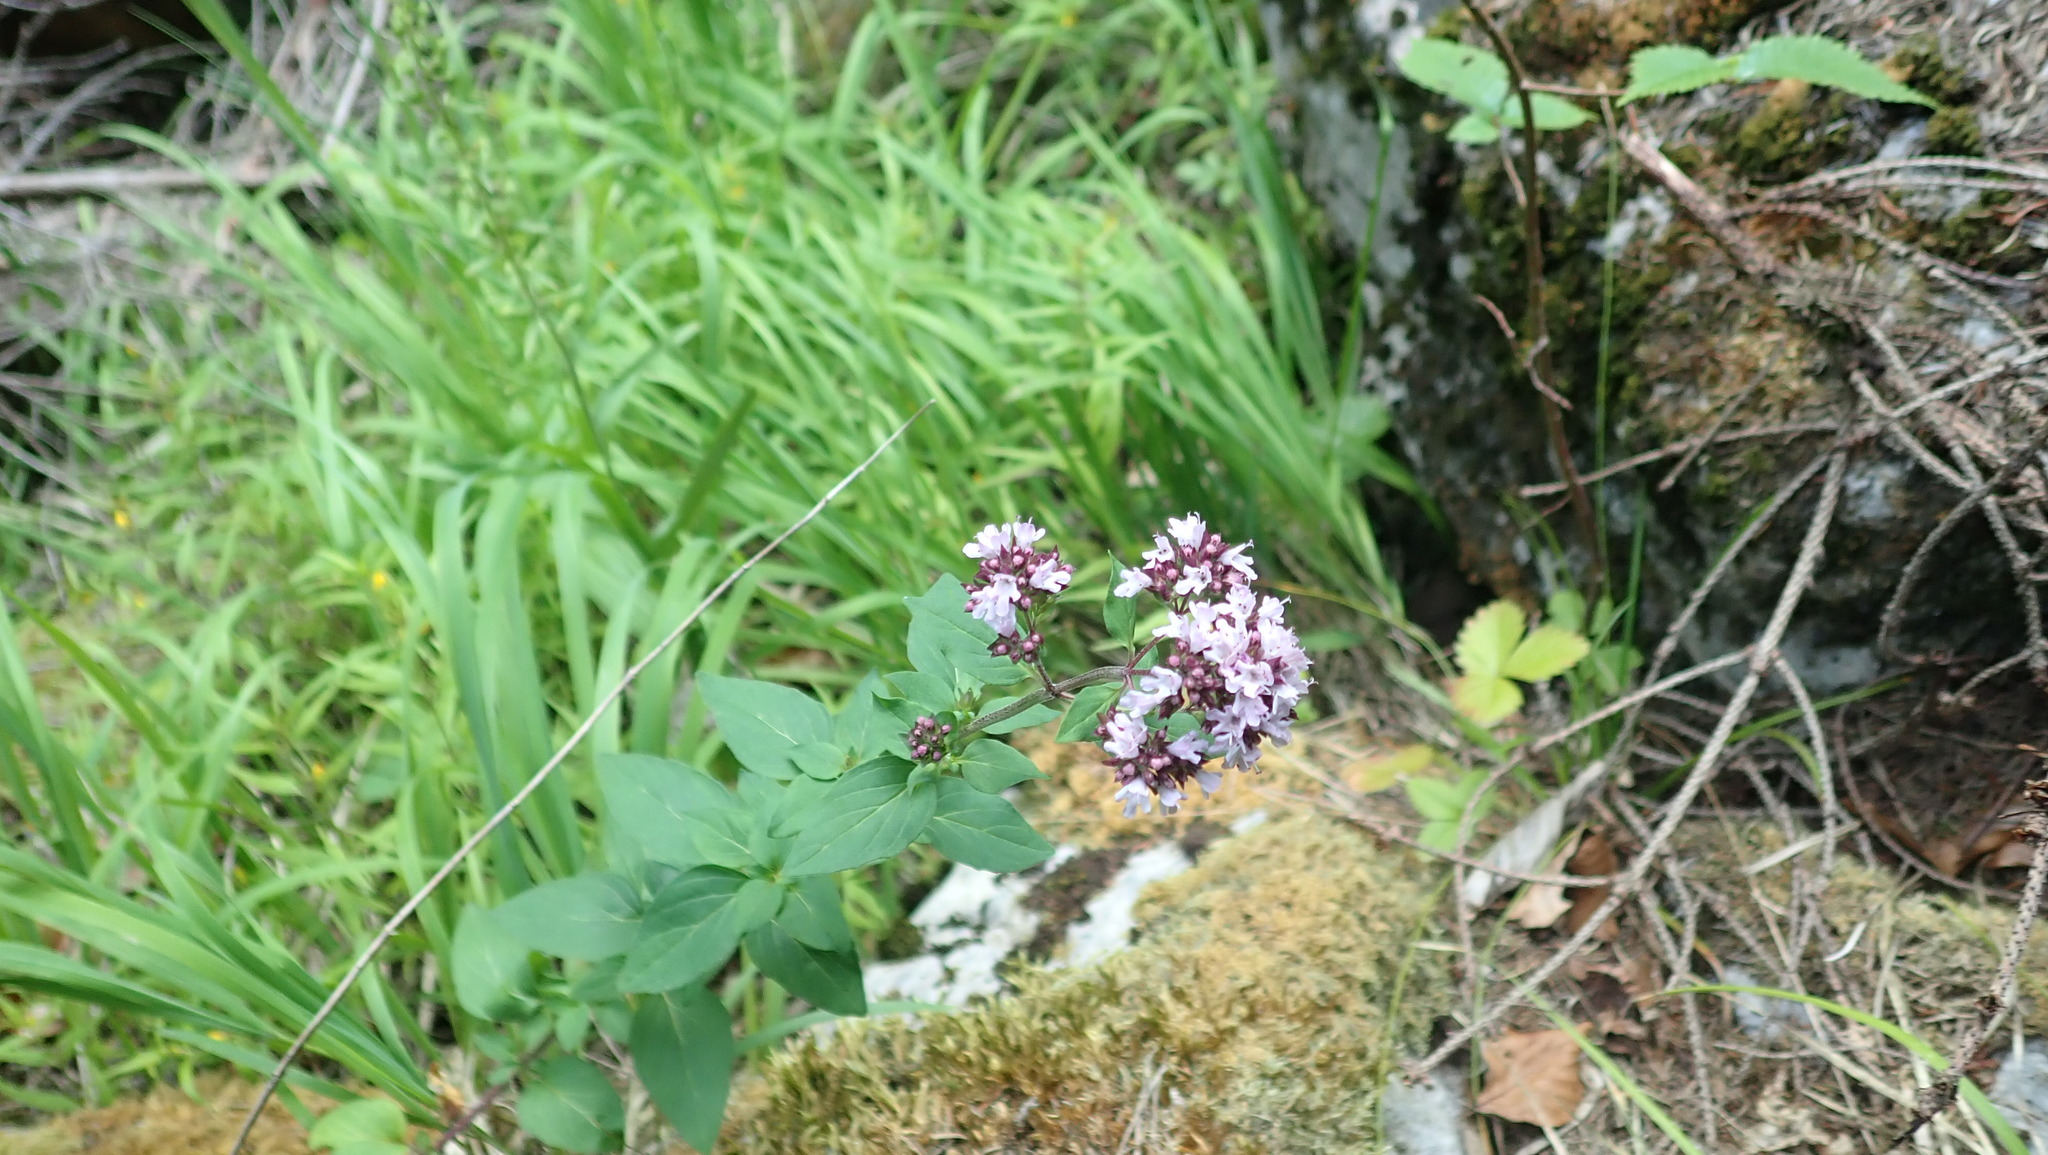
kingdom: Plantae
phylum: Tracheophyta
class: Magnoliopsida
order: Lamiales
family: Lamiaceae
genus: Origanum
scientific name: Origanum vulgare
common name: Wild marjoram
